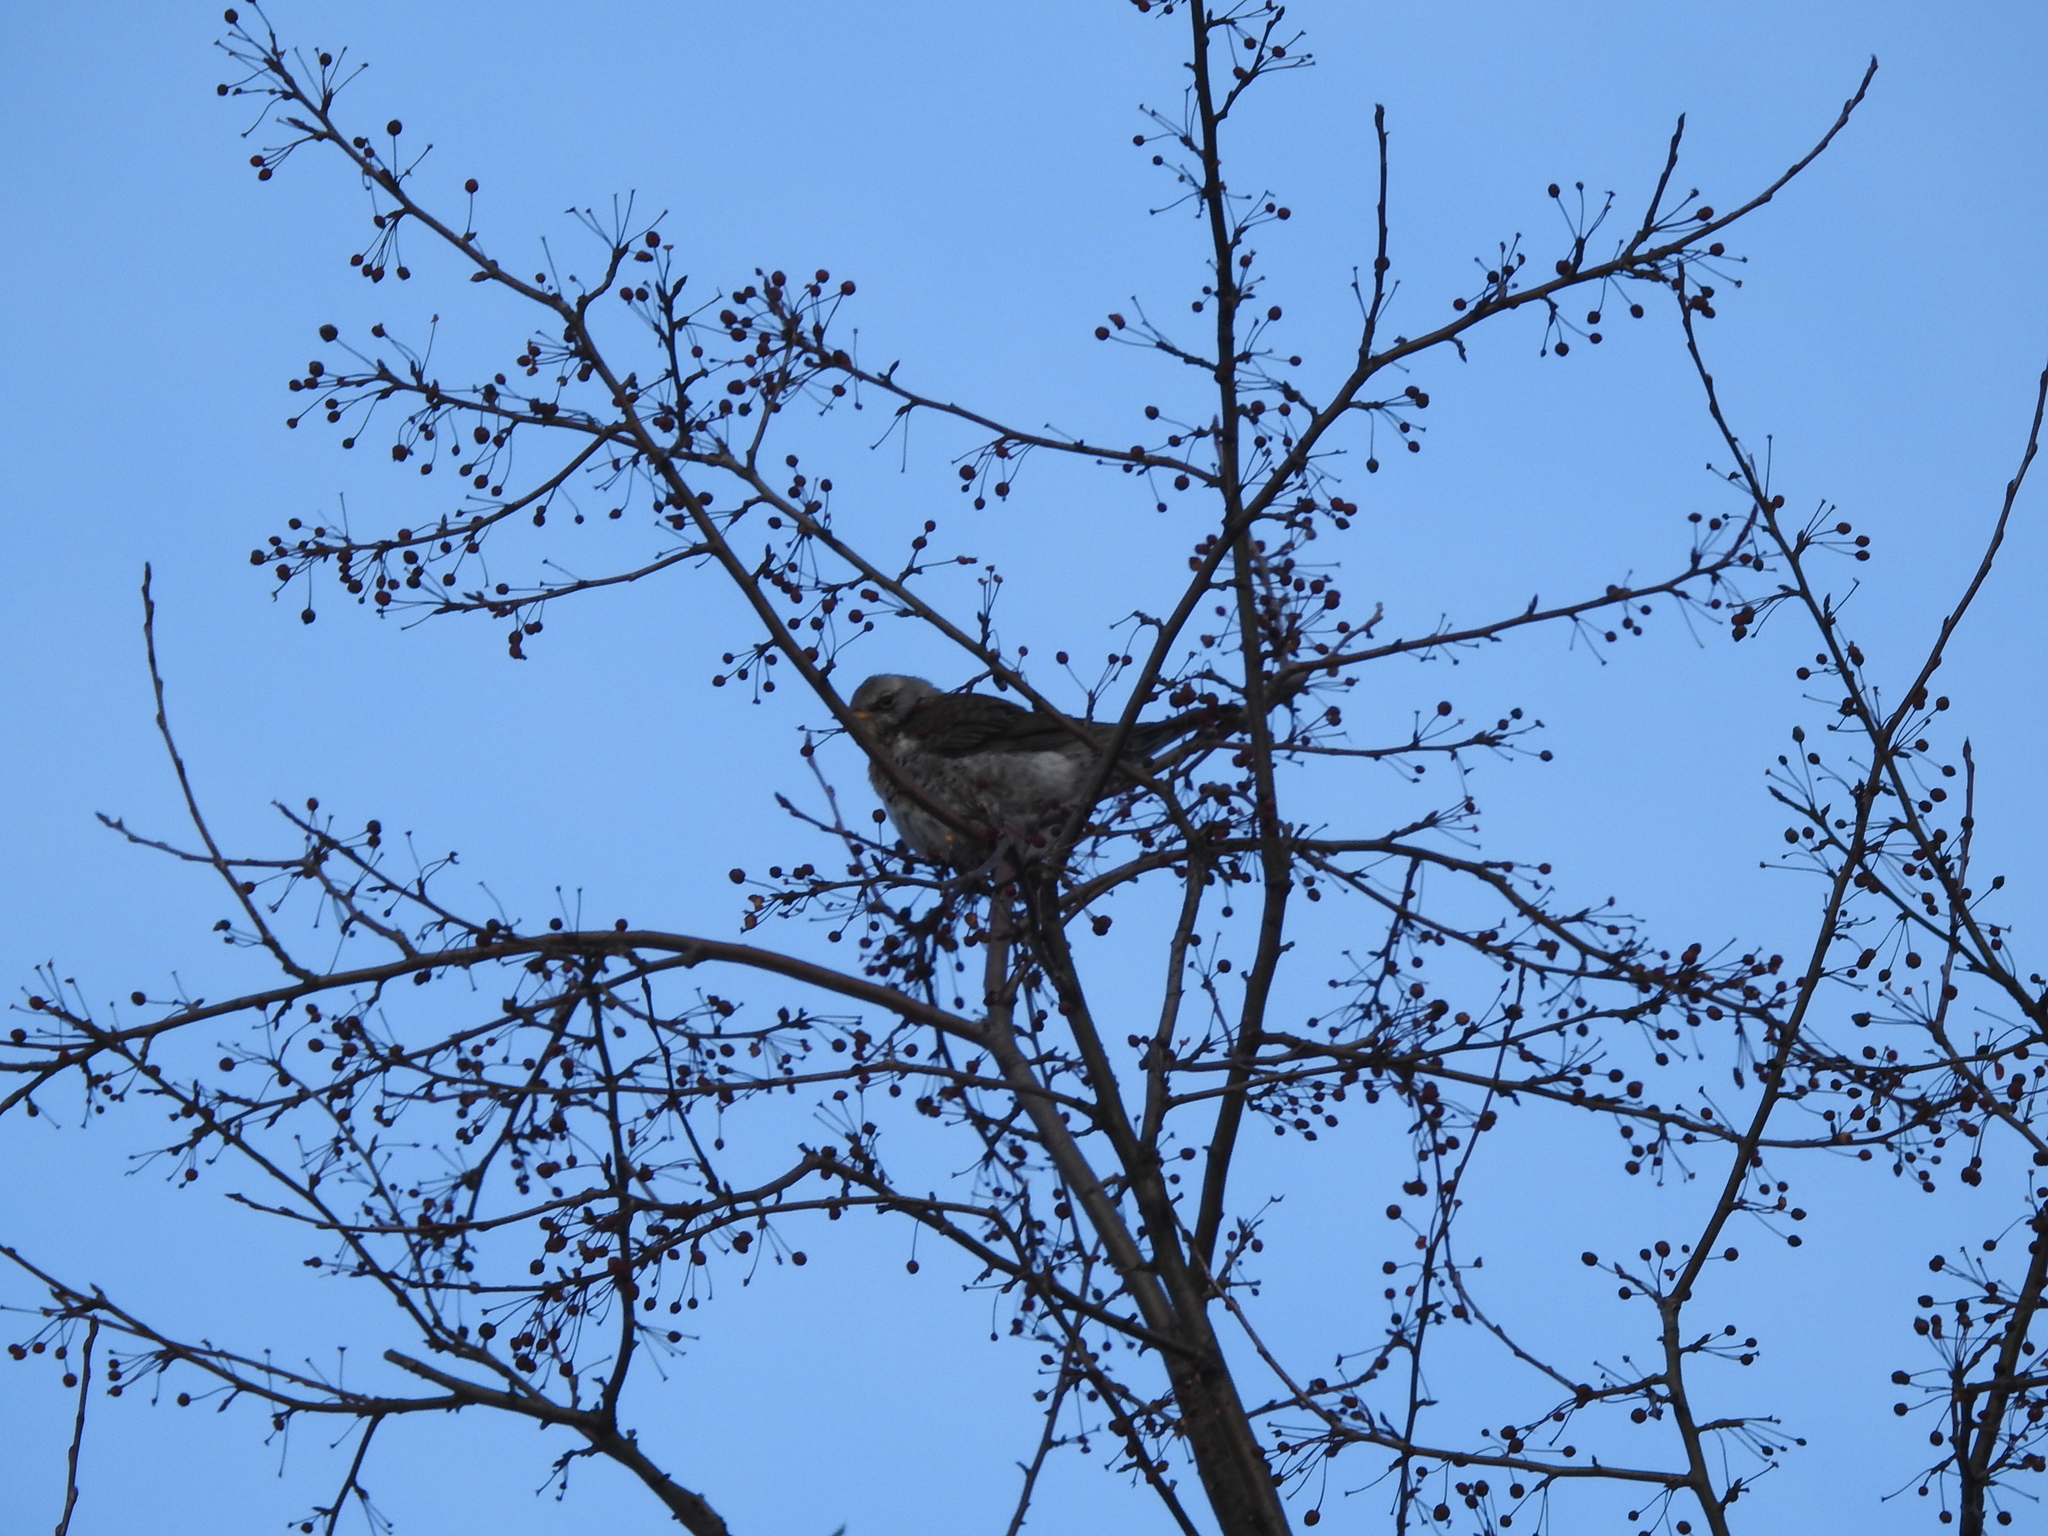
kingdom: Animalia
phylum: Chordata
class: Aves
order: Passeriformes
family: Turdidae
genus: Turdus
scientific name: Turdus pilaris
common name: Fieldfare
